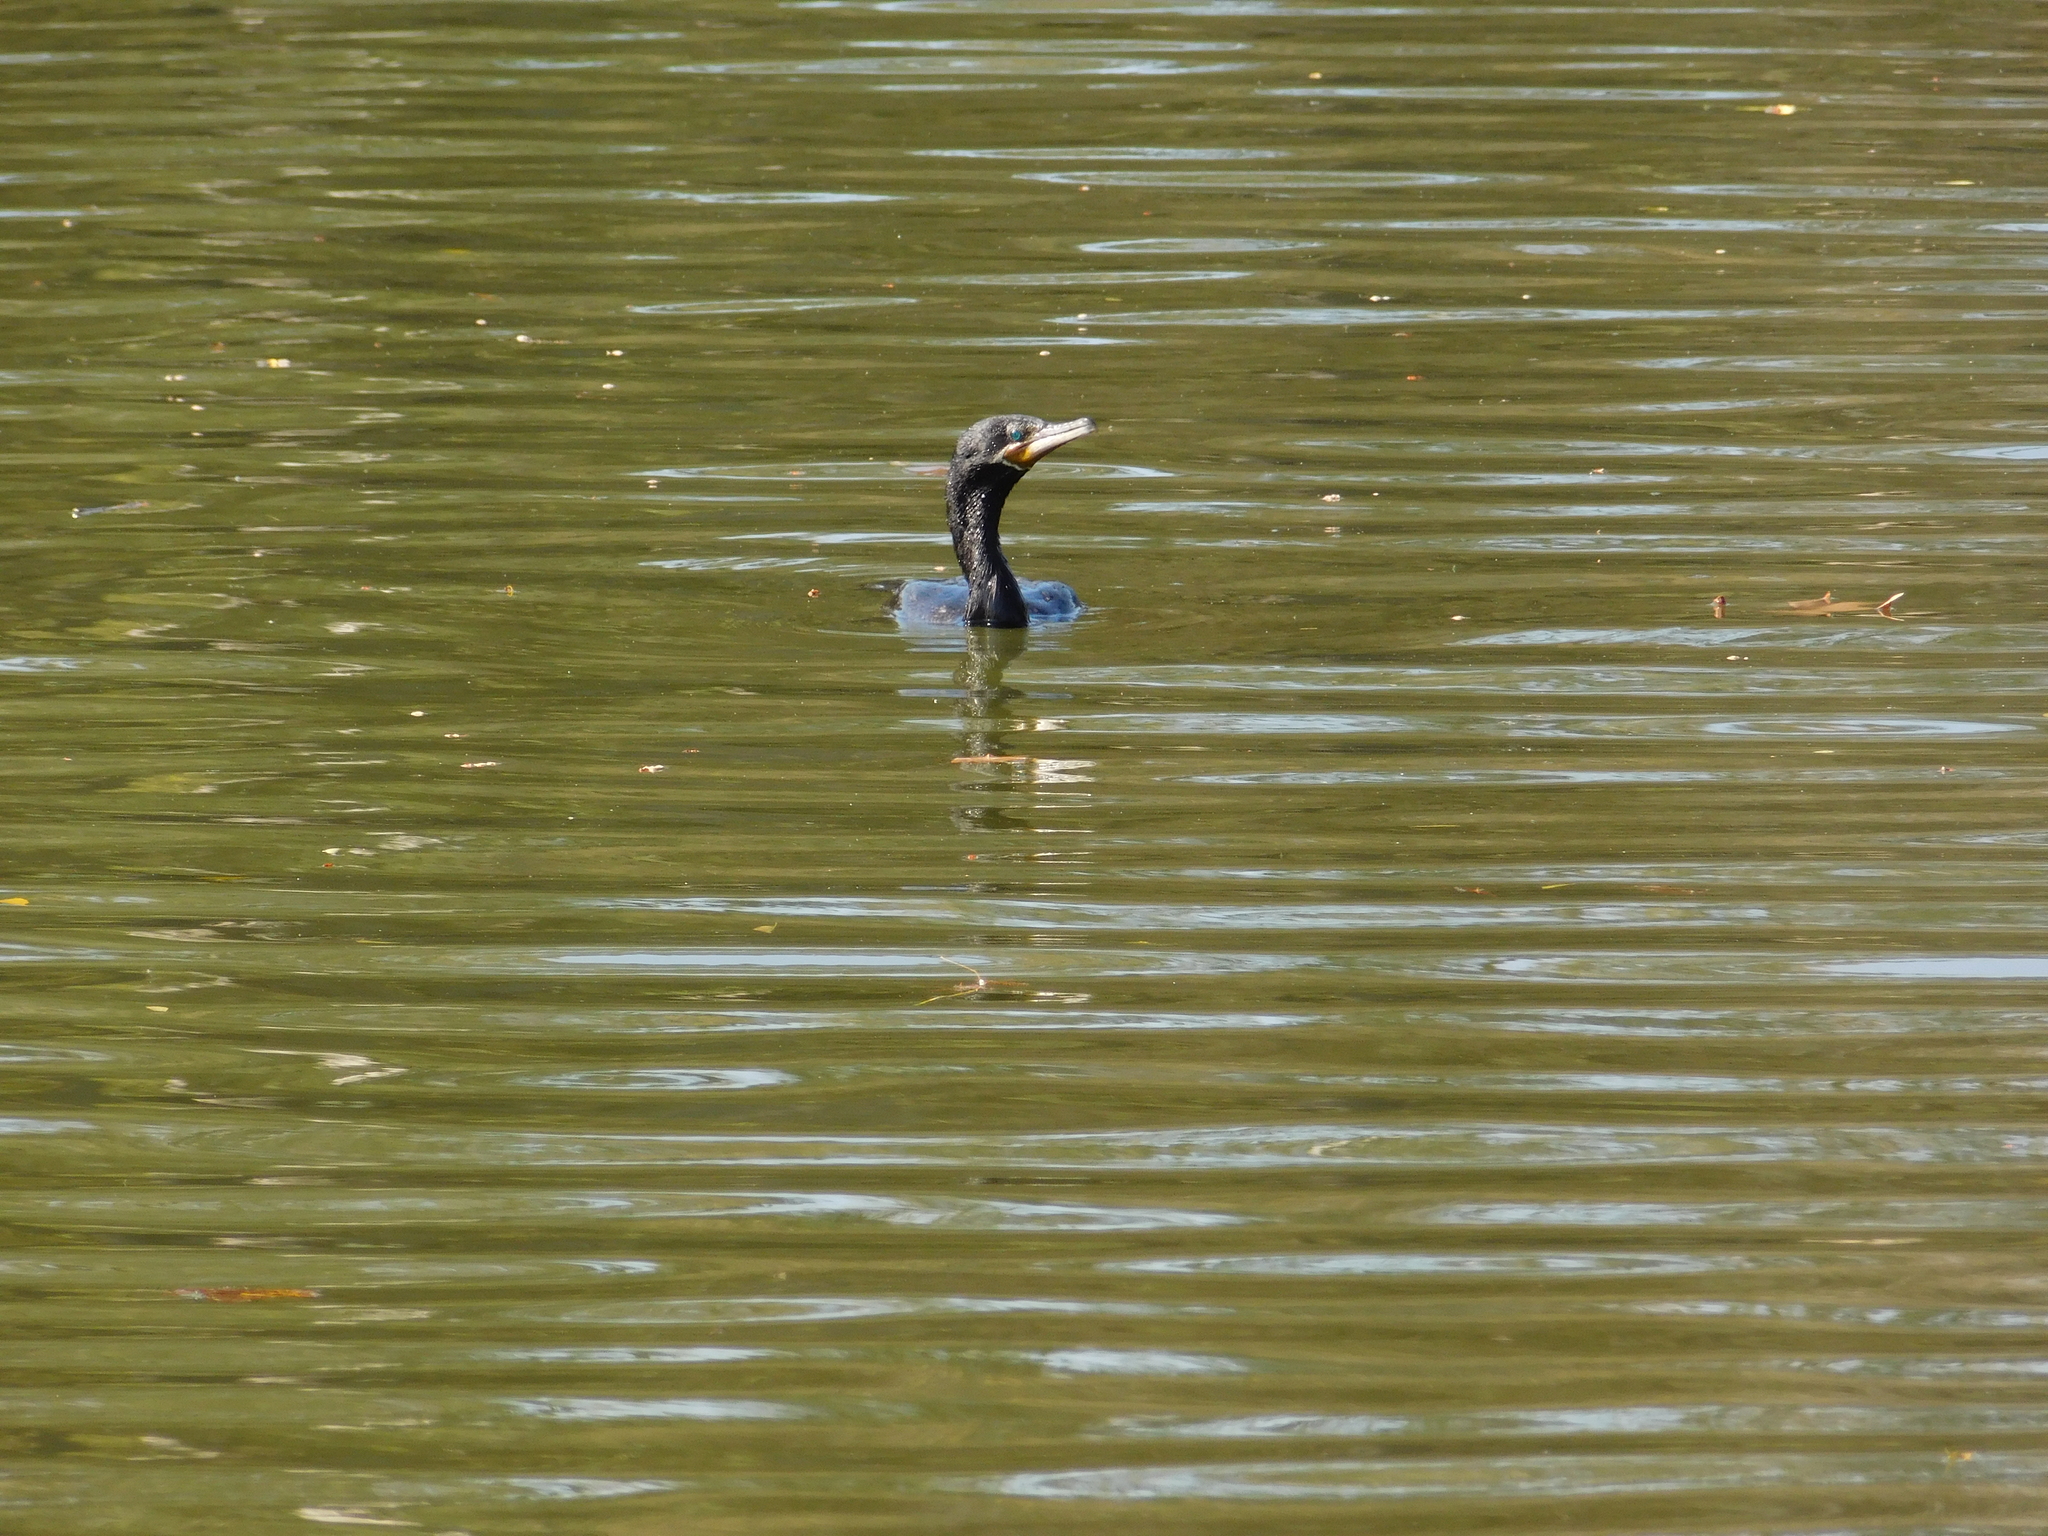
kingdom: Animalia
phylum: Chordata
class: Aves
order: Suliformes
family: Phalacrocoracidae
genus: Phalacrocorax
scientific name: Phalacrocorax brasilianus
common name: Neotropic cormorant
